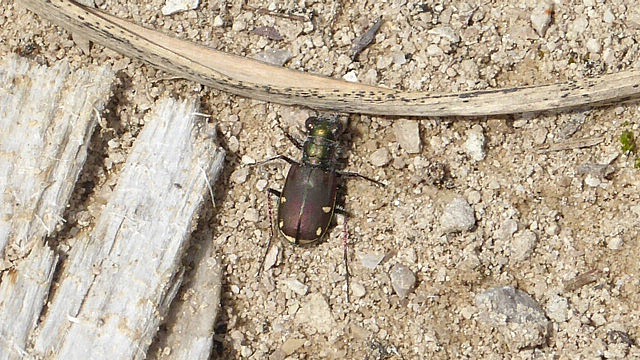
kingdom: Animalia
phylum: Arthropoda
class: Insecta
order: Coleoptera
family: Carabidae
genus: Cicindela
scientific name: Cicindela scutellaris
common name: Festive tiger beetle
